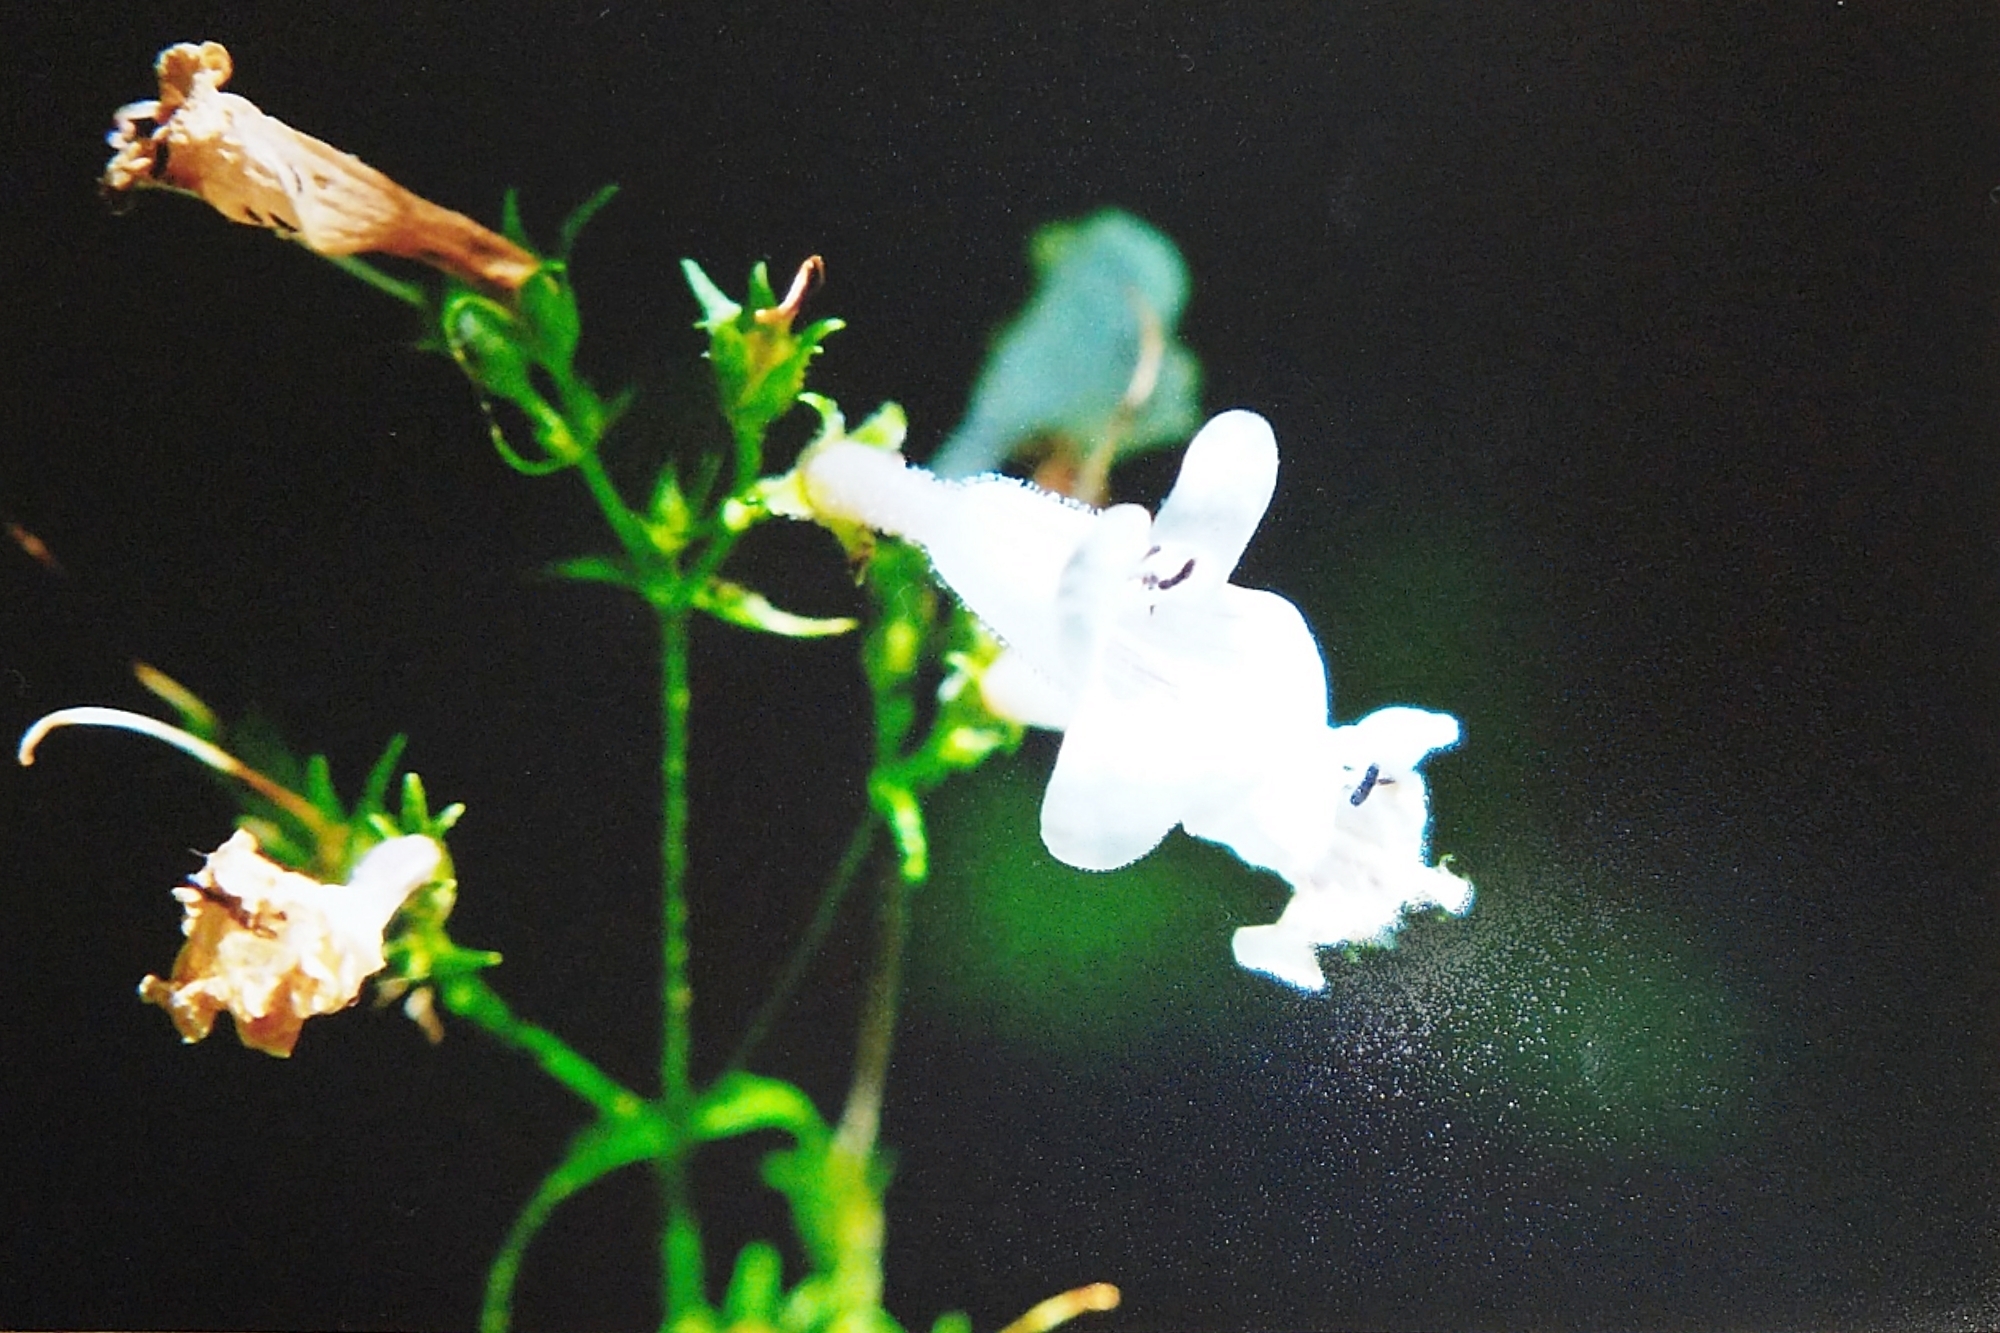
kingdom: Plantae
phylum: Tracheophyta
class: Magnoliopsida
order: Lamiales
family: Plantaginaceae
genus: Penstemon
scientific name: Penstemon digitalis
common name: Foxglove beardtongue
